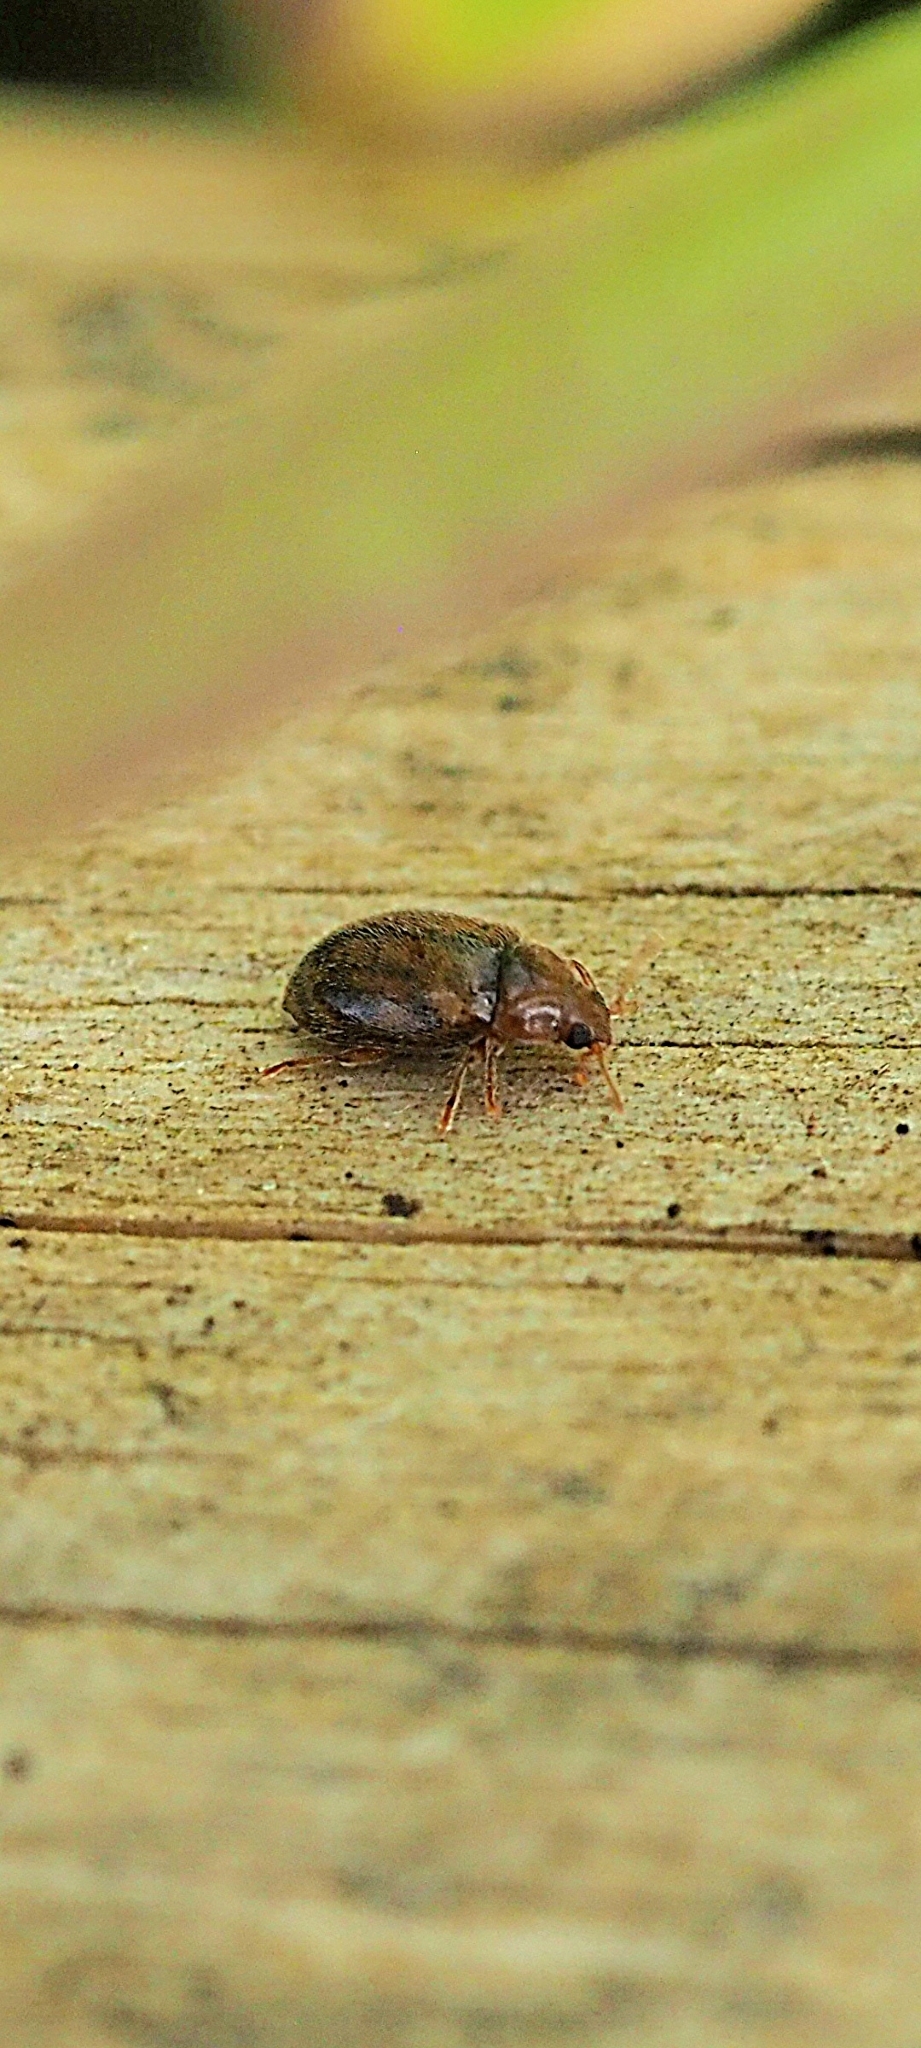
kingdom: Animalia
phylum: Arthropoda
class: Insecta
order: Coleoptera
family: Coccinellidae
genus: Rhyzobius
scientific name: Rhyzobius chrysomeloides
